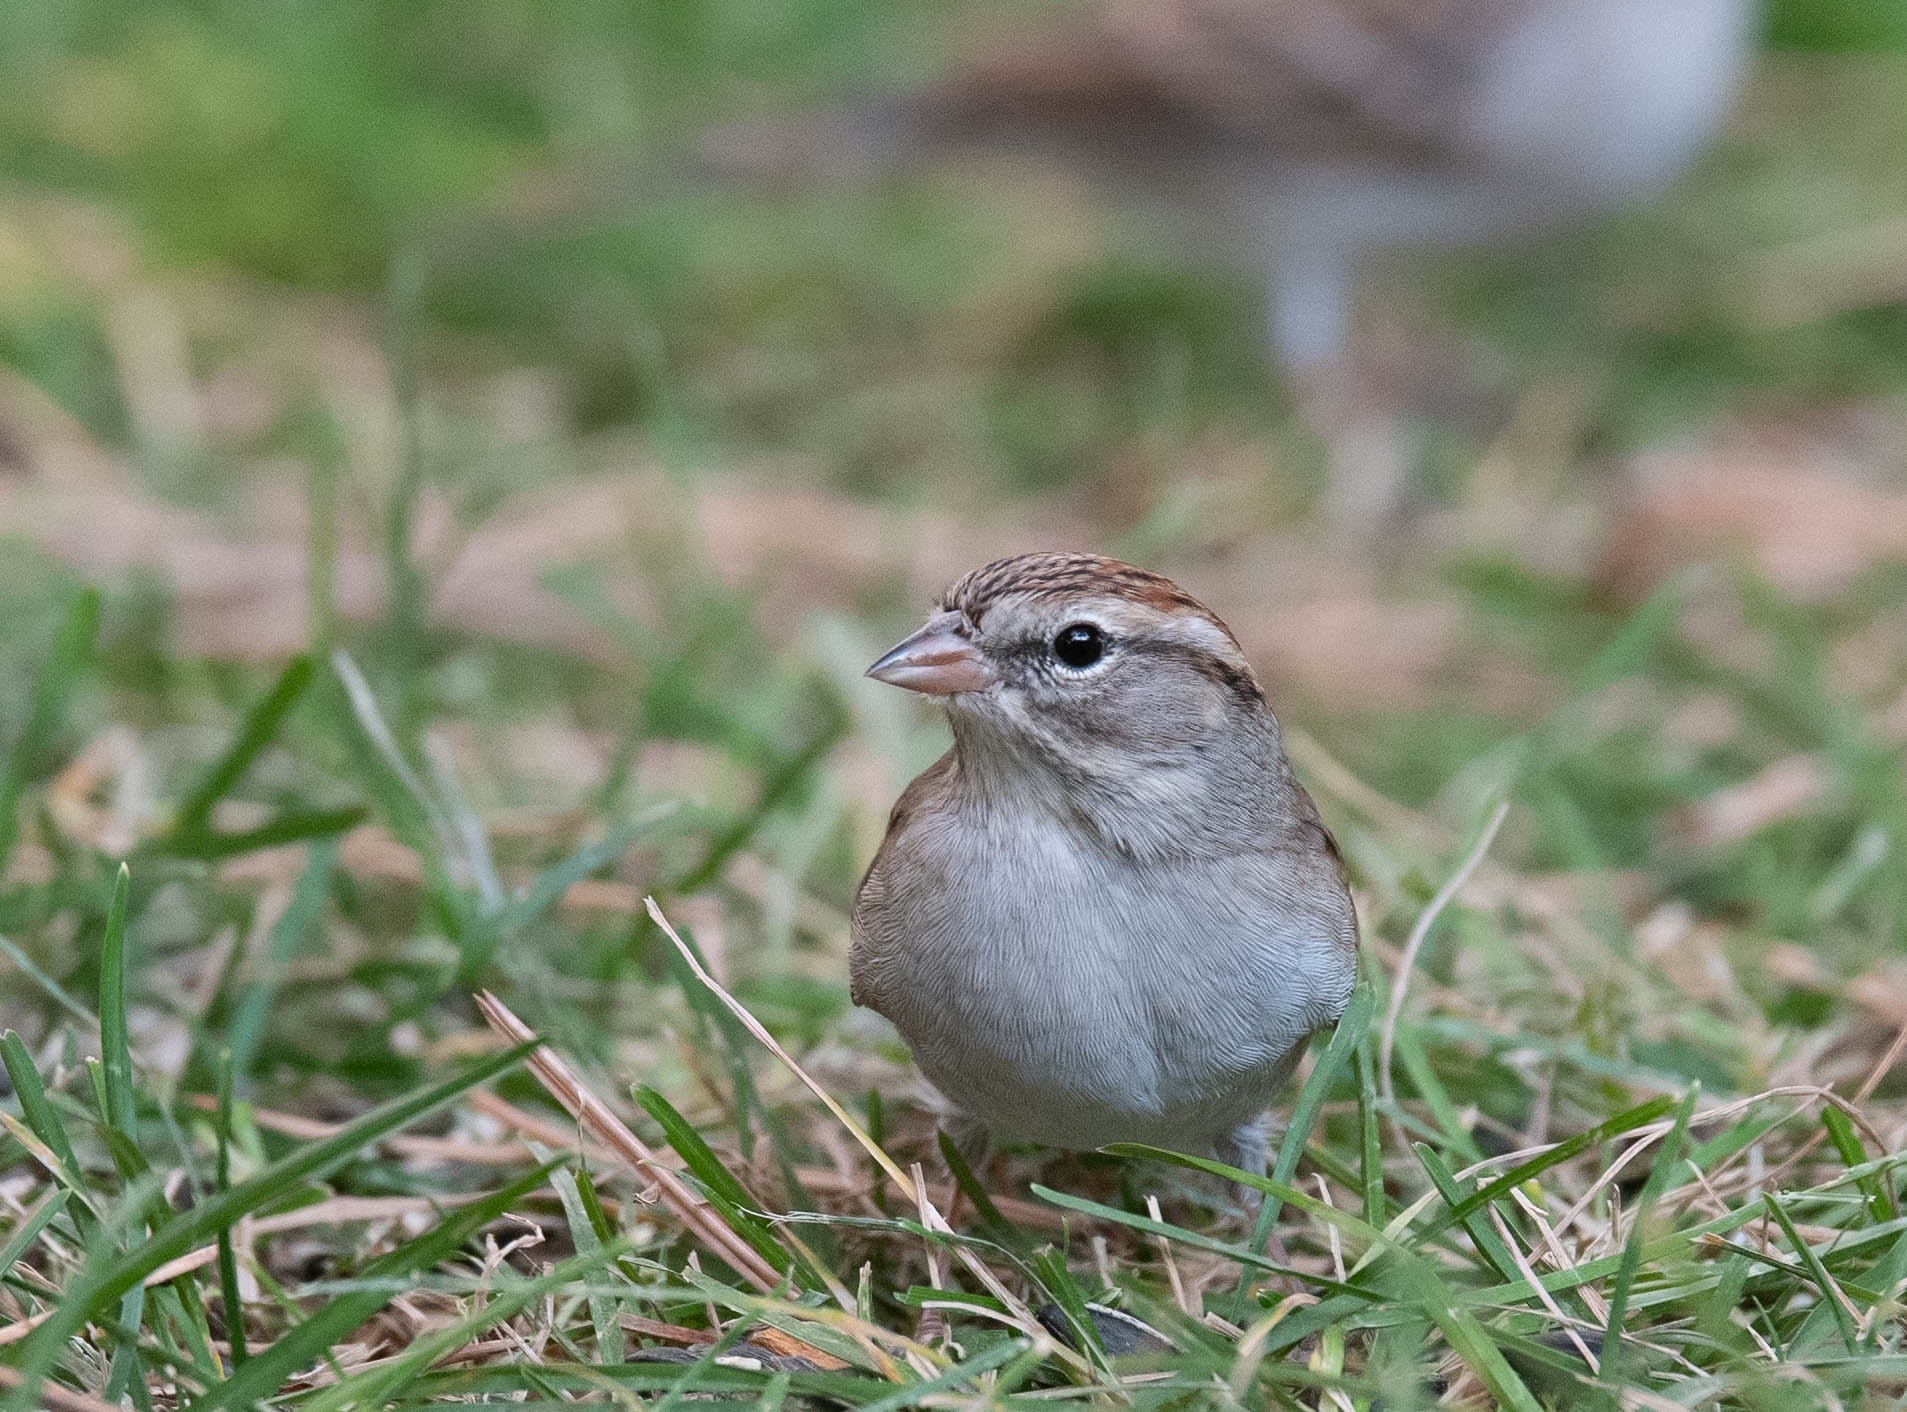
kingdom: Animalia
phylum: Chordata
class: Aves
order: Passeriformes
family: Passerellidae
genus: Spizella
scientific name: Spizella passerina
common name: Chipping sparrow
